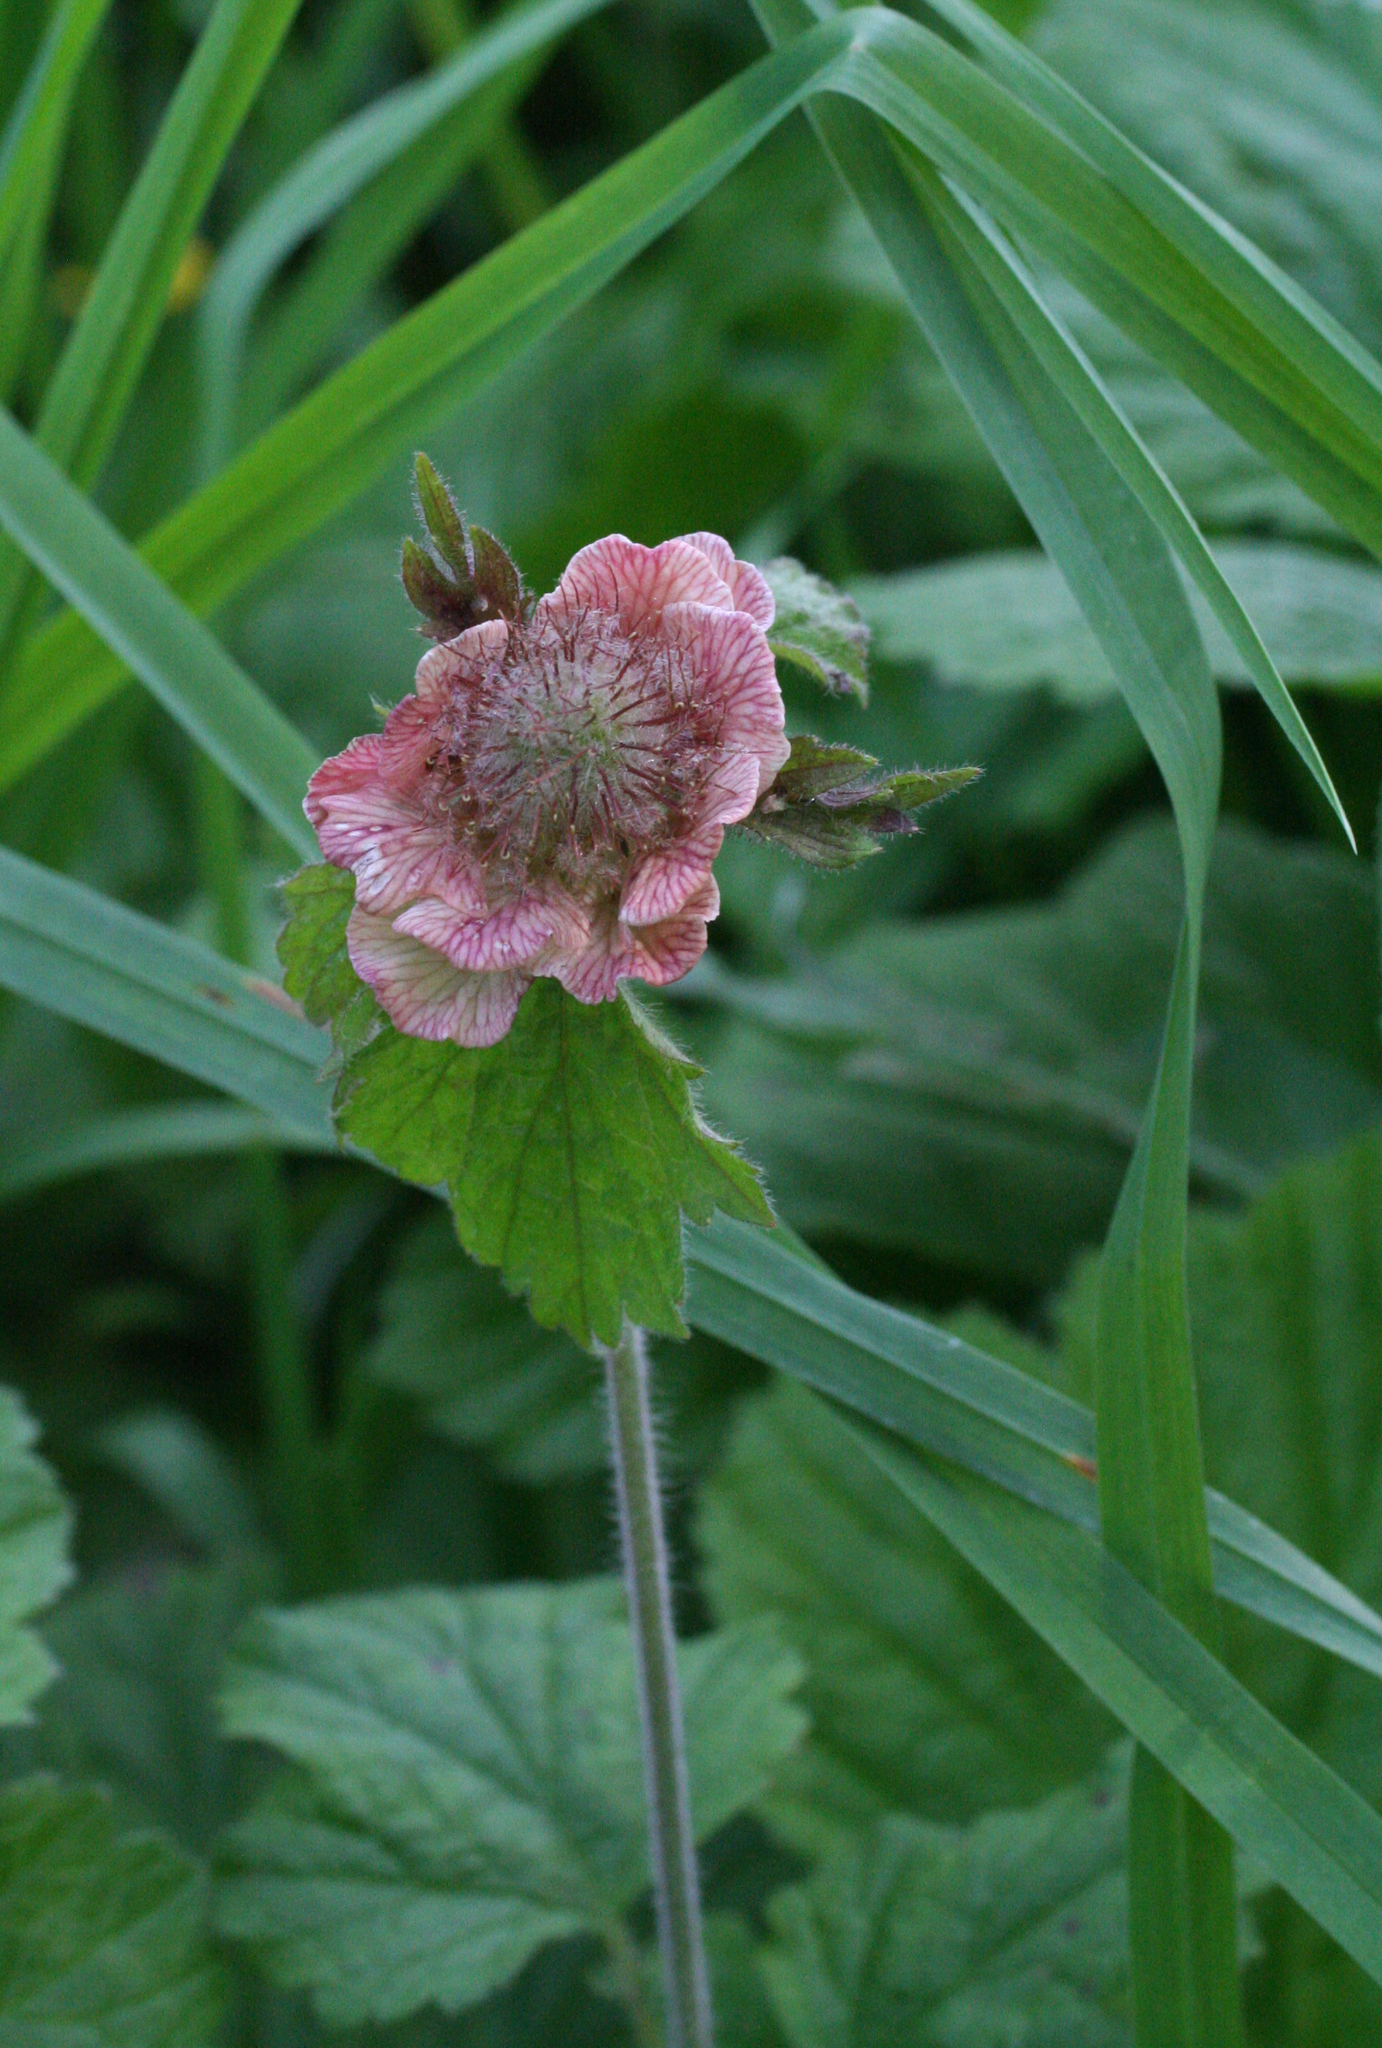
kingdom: Plantae
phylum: Tracheophyta
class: Magnoliopsida
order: Rosales
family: Rosaceae
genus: Geum
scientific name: Geum rivale
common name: Water avens
